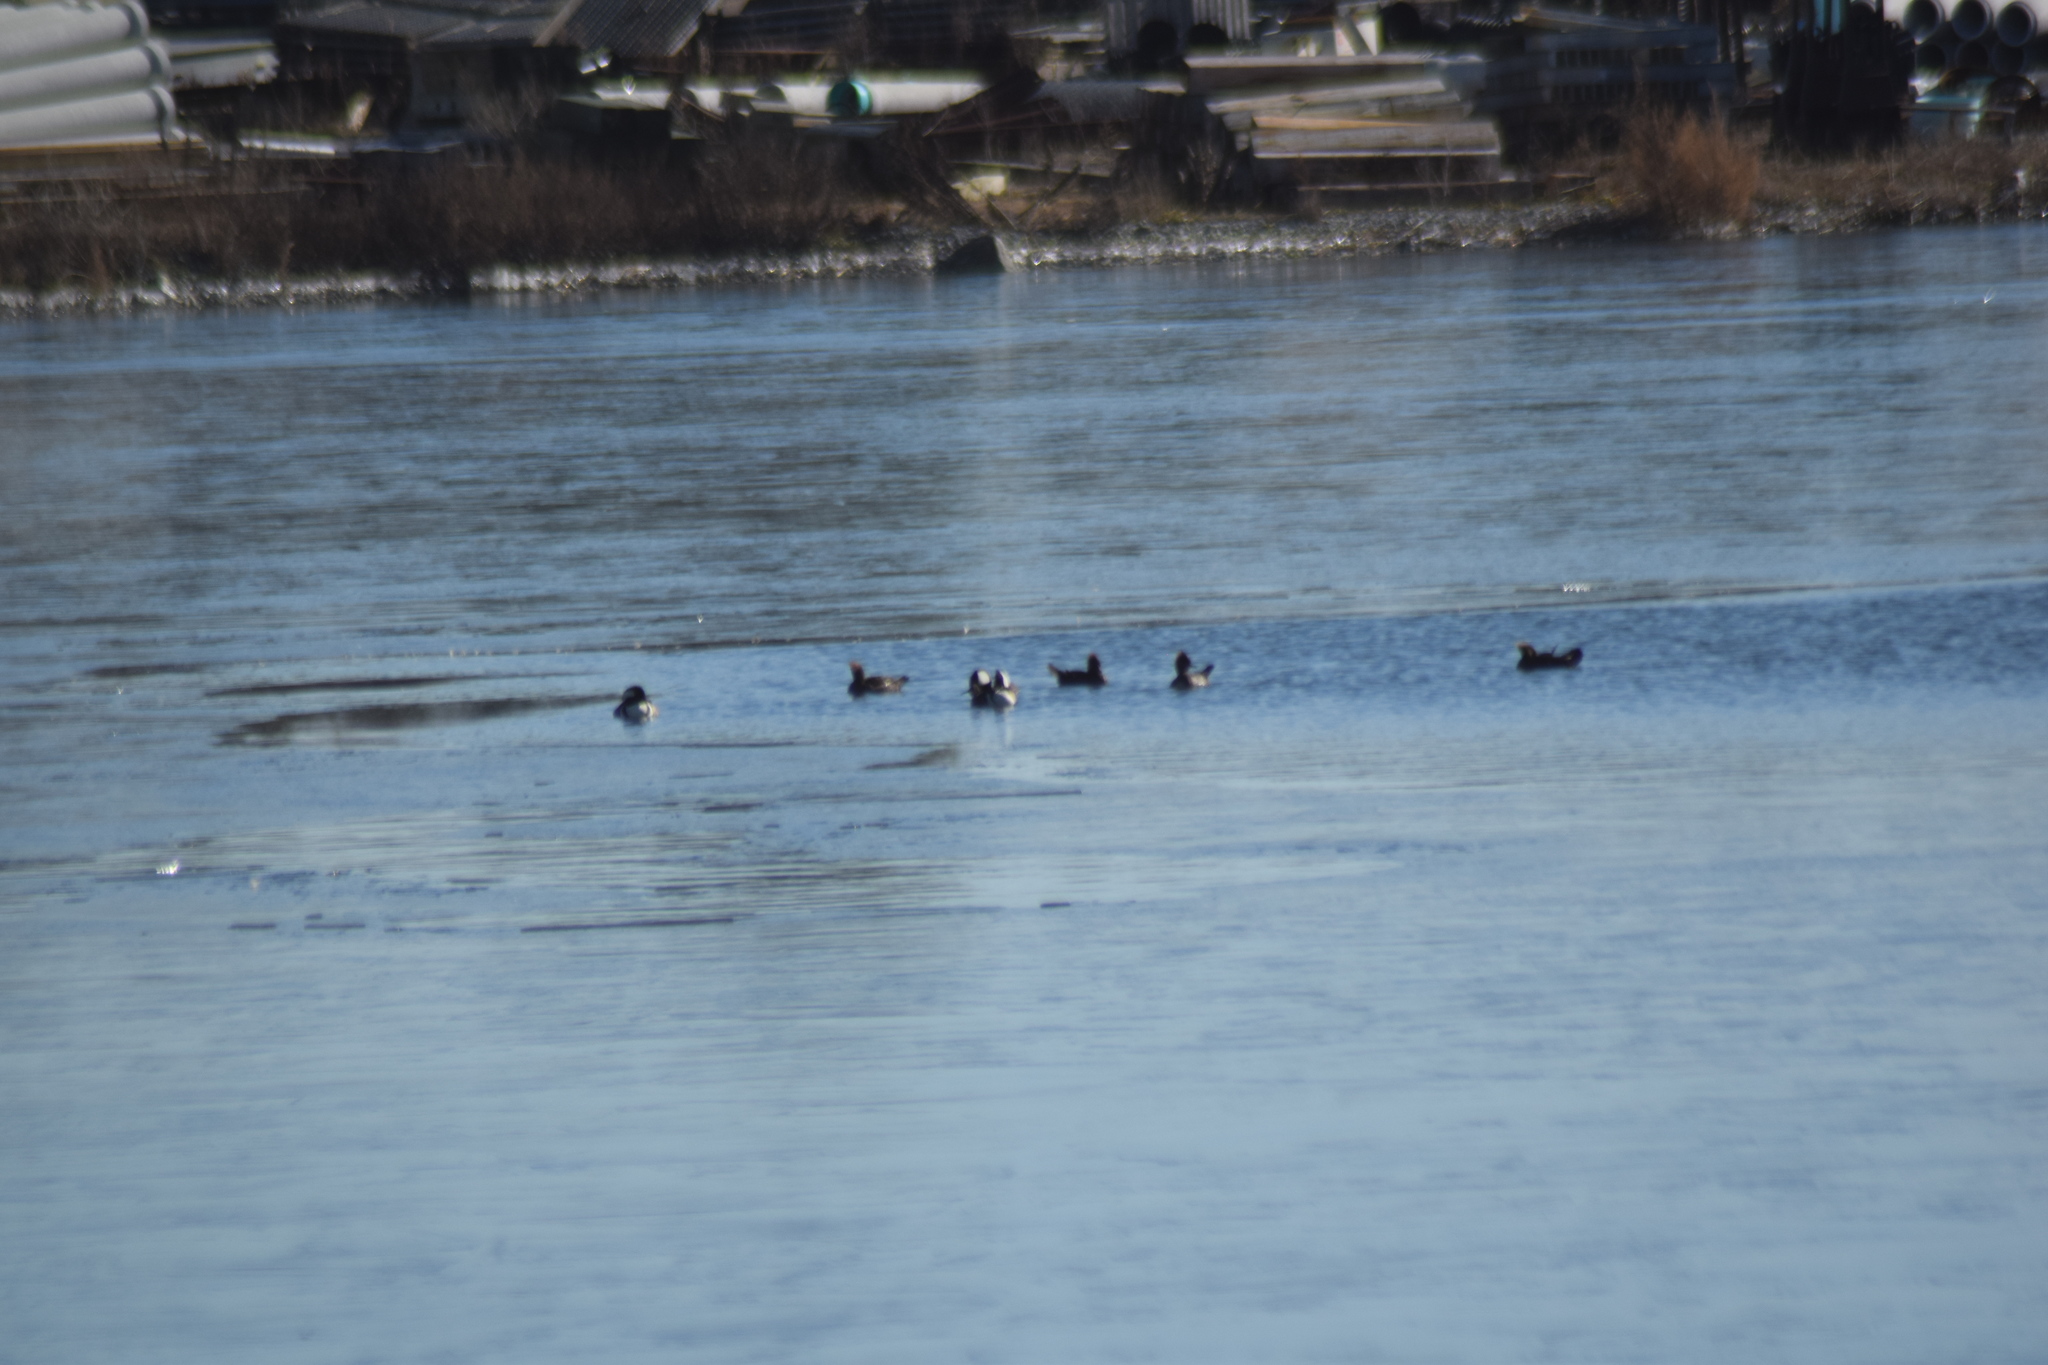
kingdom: Animalia
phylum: Chordata
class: Aves
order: Anseriformes
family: Anatidae
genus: Lophodytes
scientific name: Lophodytes cucullatus
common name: Hooded merganser
